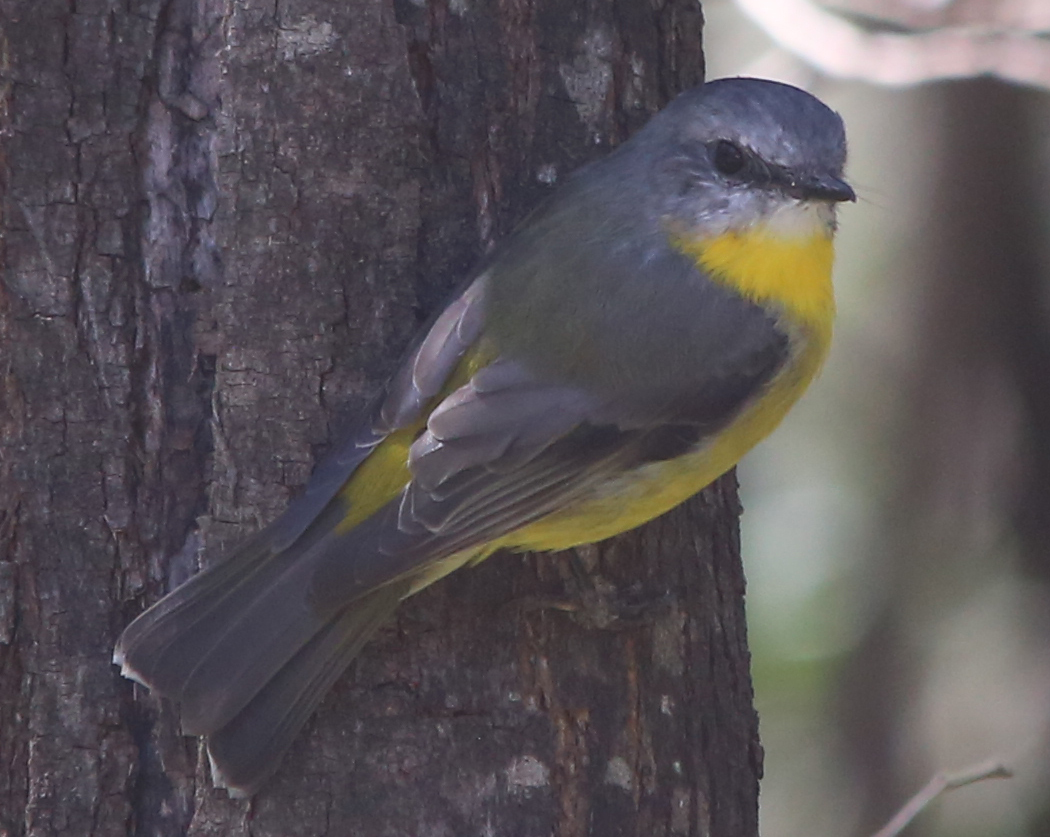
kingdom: Animalia
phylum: Chordata
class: Aves
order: Passeriformes
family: Petroicidae
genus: Eopsaltria
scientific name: Eopsaltria australis
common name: Eastern yellow robin
